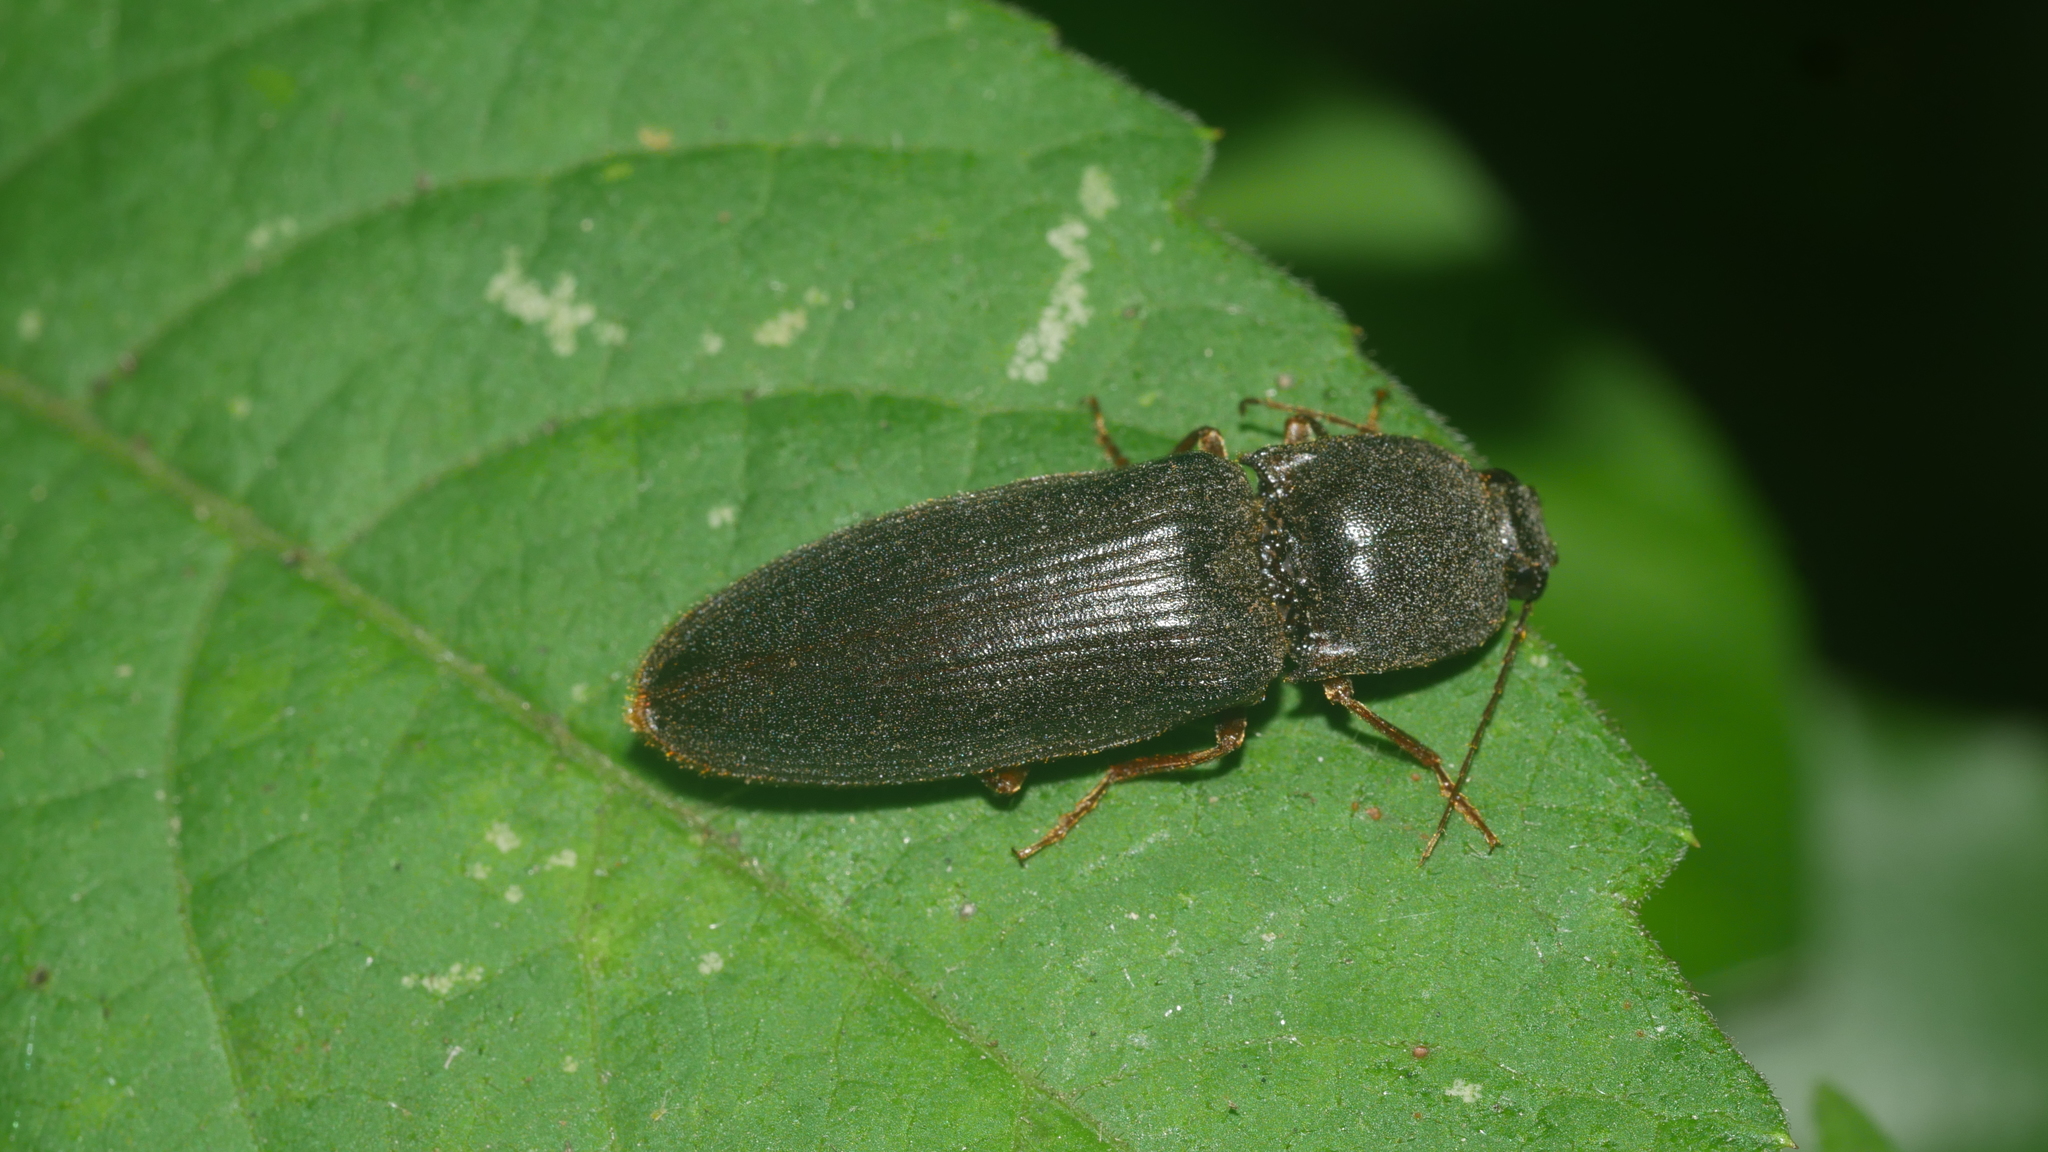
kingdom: Animalia
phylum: Arthropoda
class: Insecta
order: Coleoptera
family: Elateridae
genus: Hemicrepidius
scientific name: Hemicrepidius
